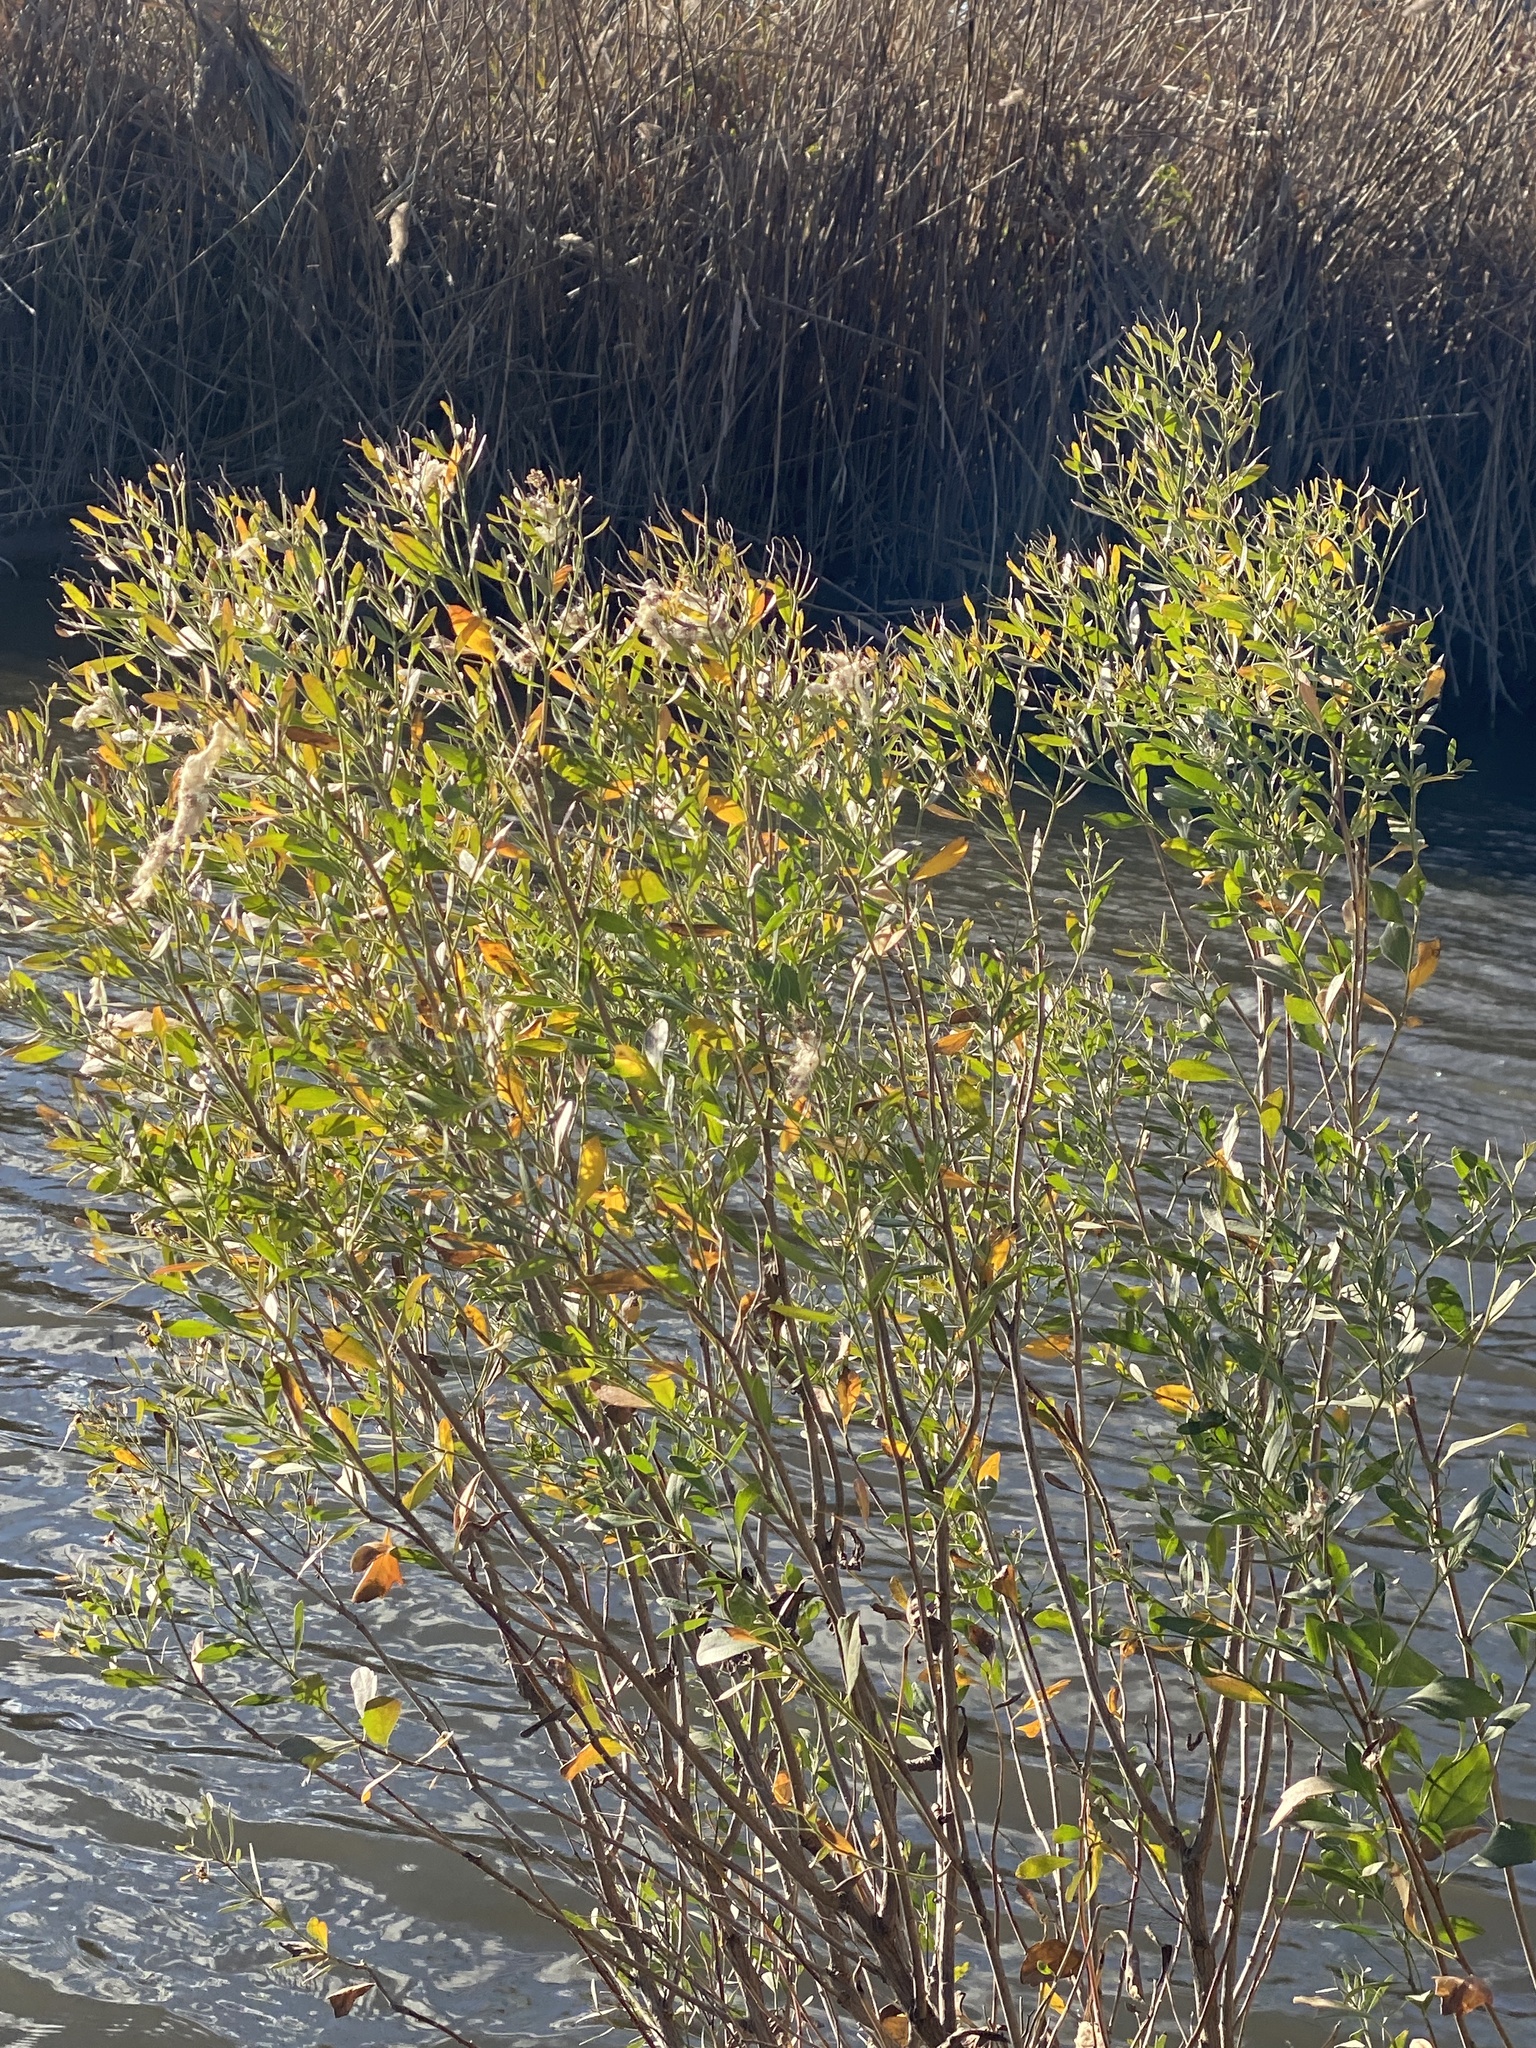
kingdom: Plantae
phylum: Tracheophyta
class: Magnoliopsida
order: Asterales
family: Asteraceae
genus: Baccharis
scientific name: Baccharis halimifolia
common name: Eastern baccharis
